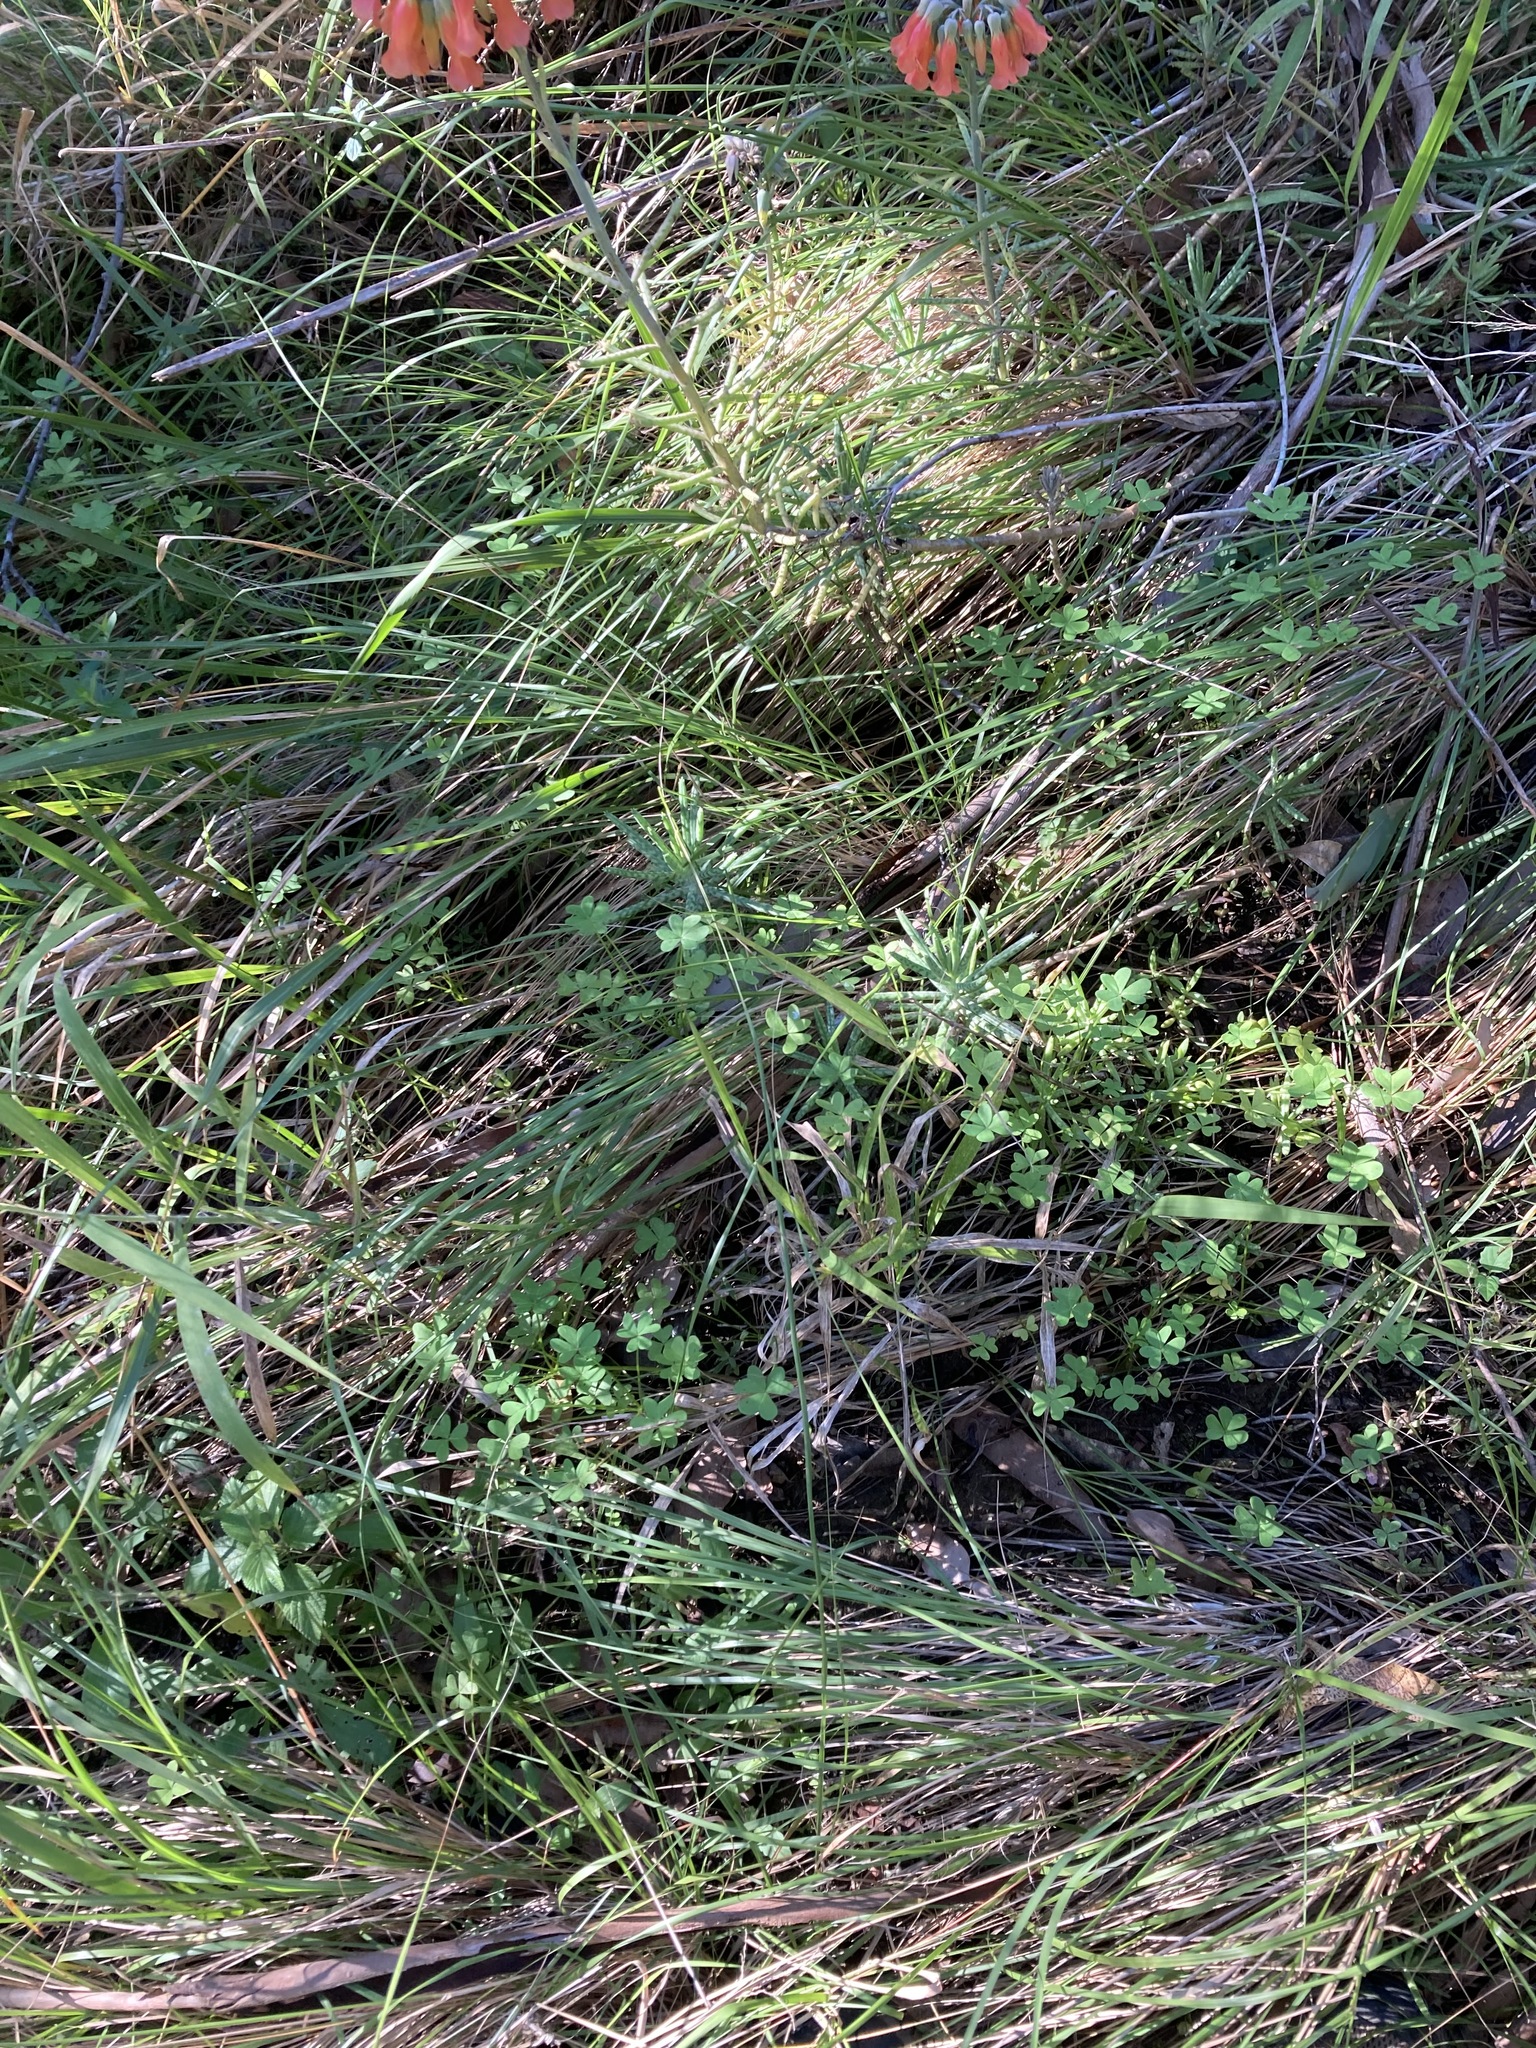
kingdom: Plantae
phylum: Tracheophyta
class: Magnoliopsida
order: Oxalidales
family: Oxalidaceae
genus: Oxalis
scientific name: Oxalis pes-caprae
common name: Bermuda-buttercup
